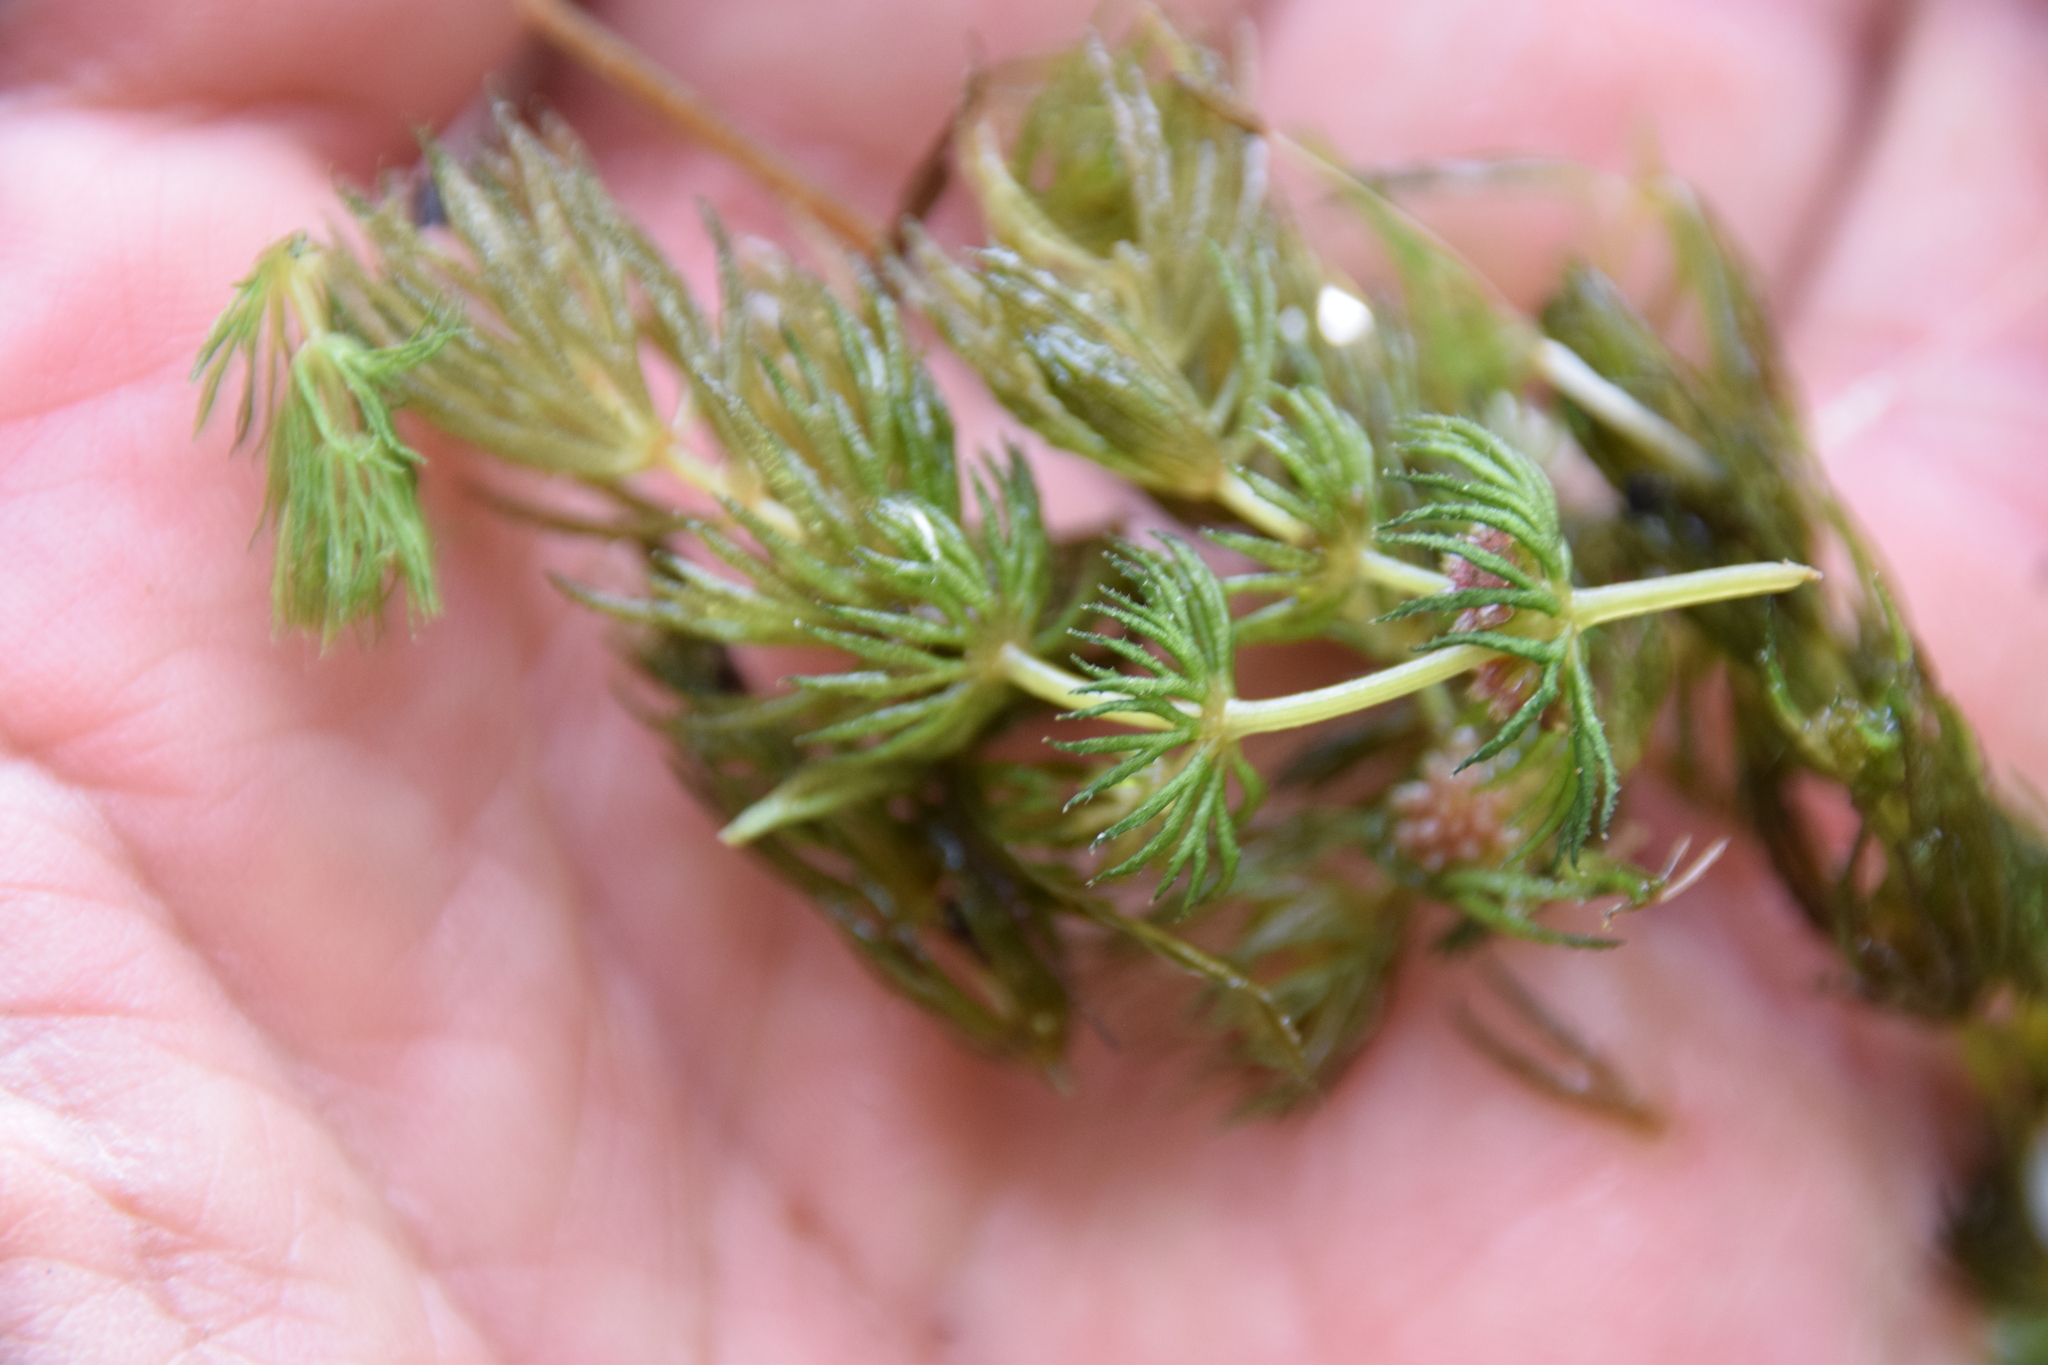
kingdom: Plantae
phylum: Tracheophyta
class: Magnoliopsida
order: Ceratophyllales
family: Ceratophyllaceae
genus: Ceratophyllum
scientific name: Ceratophyllum demersum
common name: Rigid hornwort
